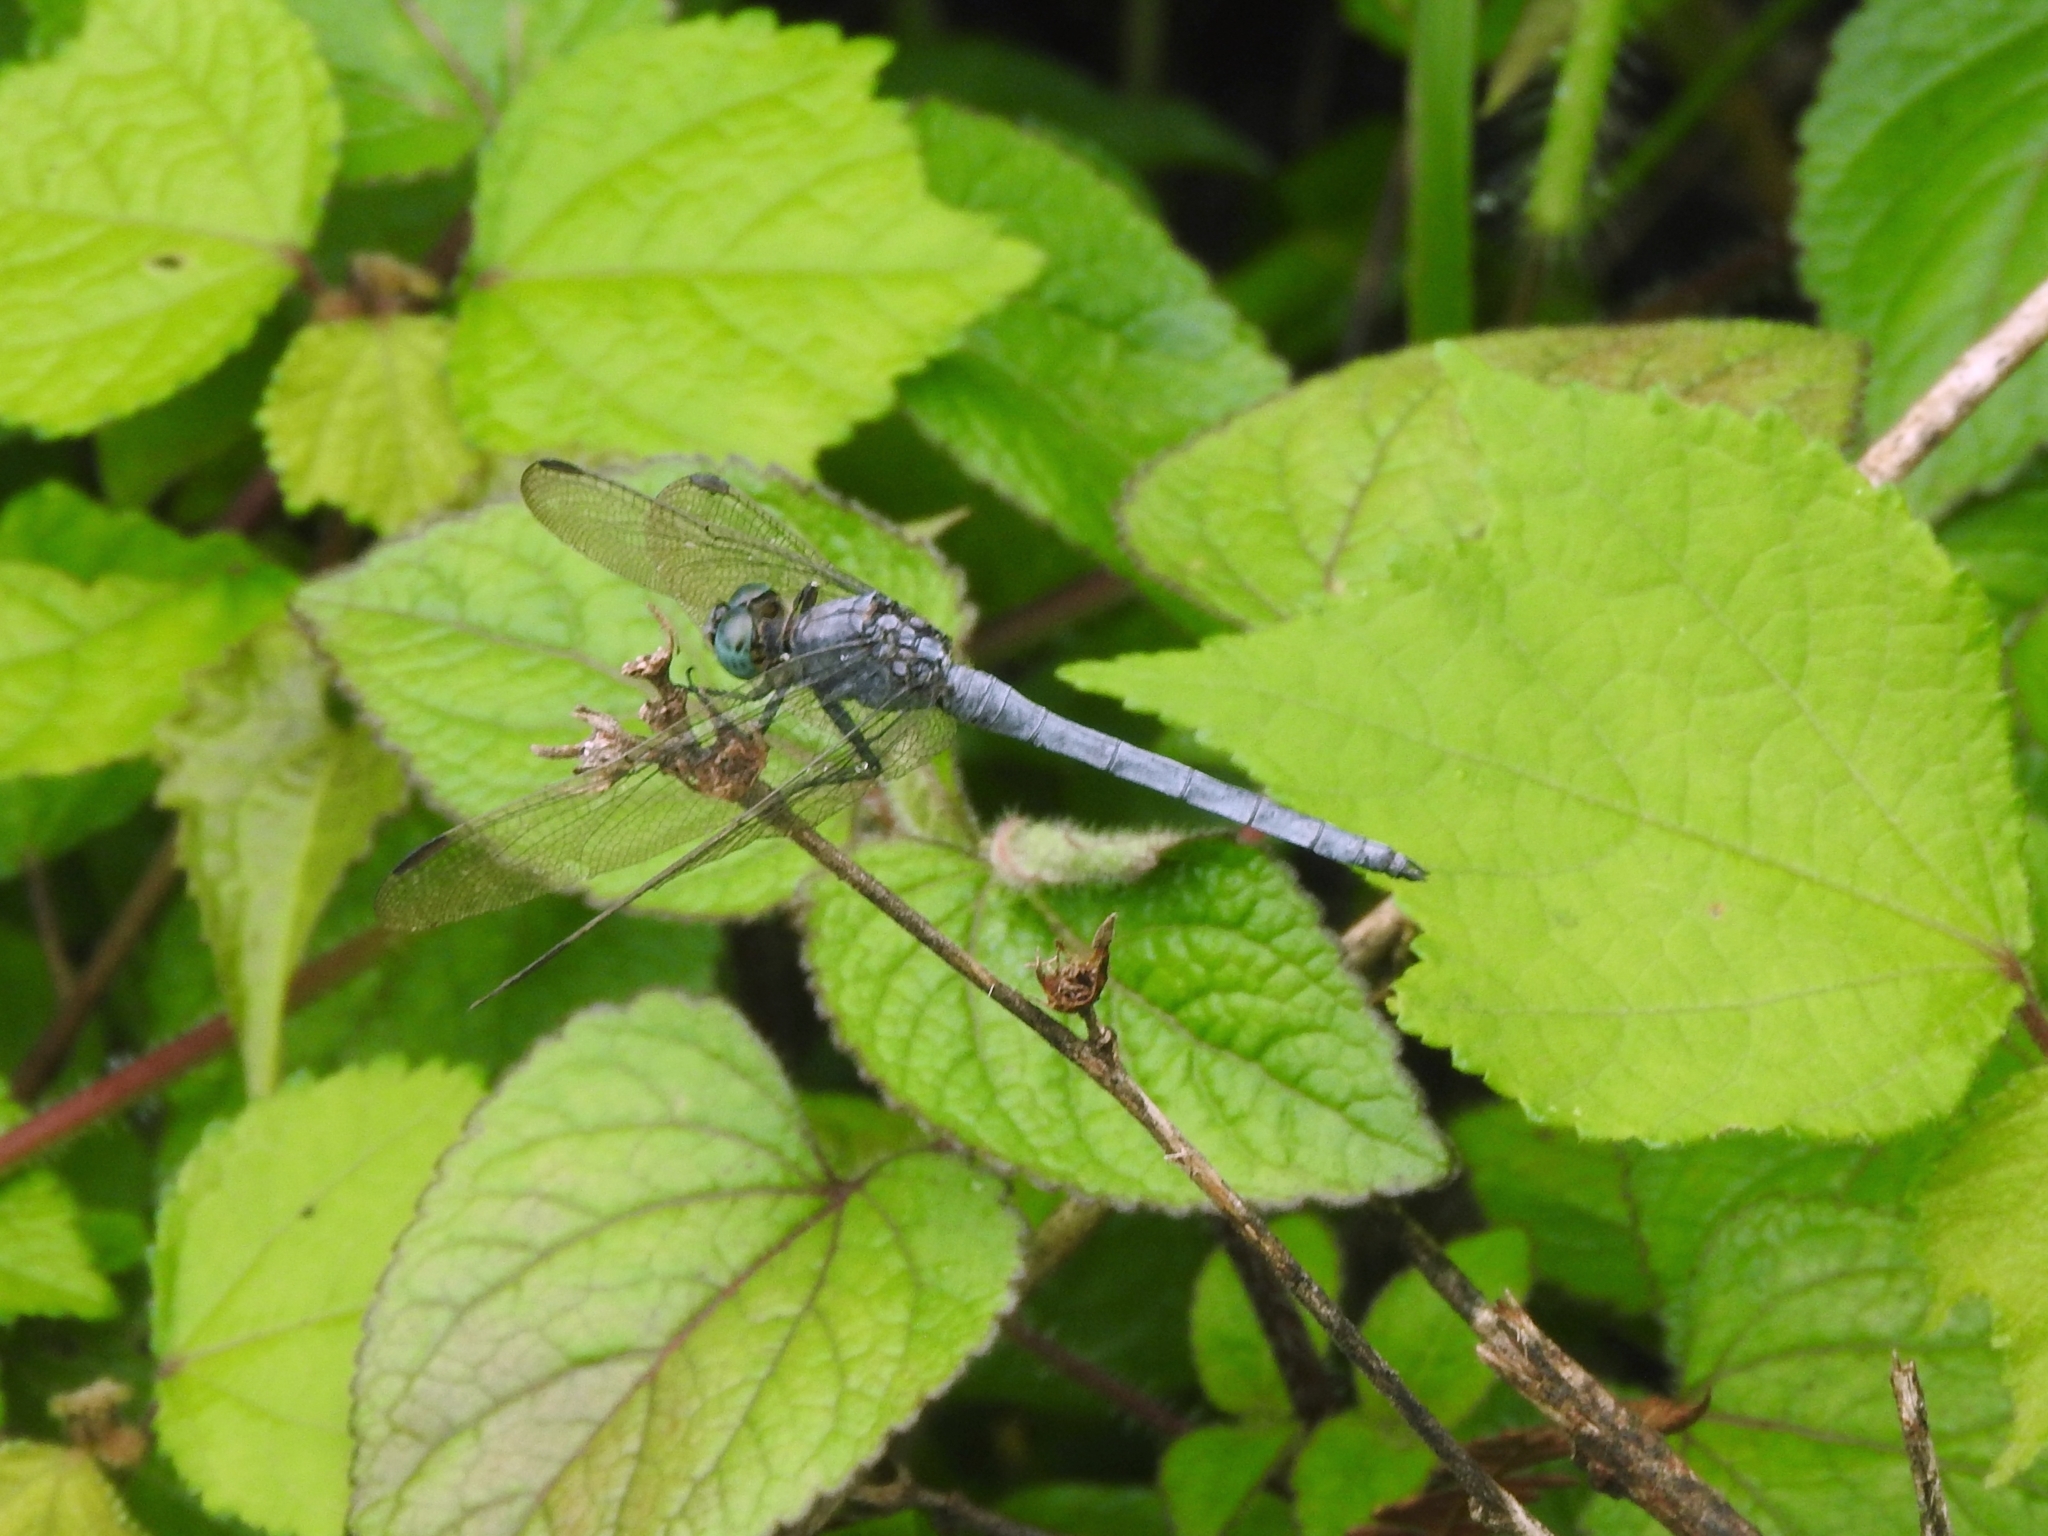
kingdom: Animalia
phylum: Arthropoda
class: Insecta
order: Odonata
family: Libellulidae
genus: Orthetrum
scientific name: Orthetrum luzonicum
